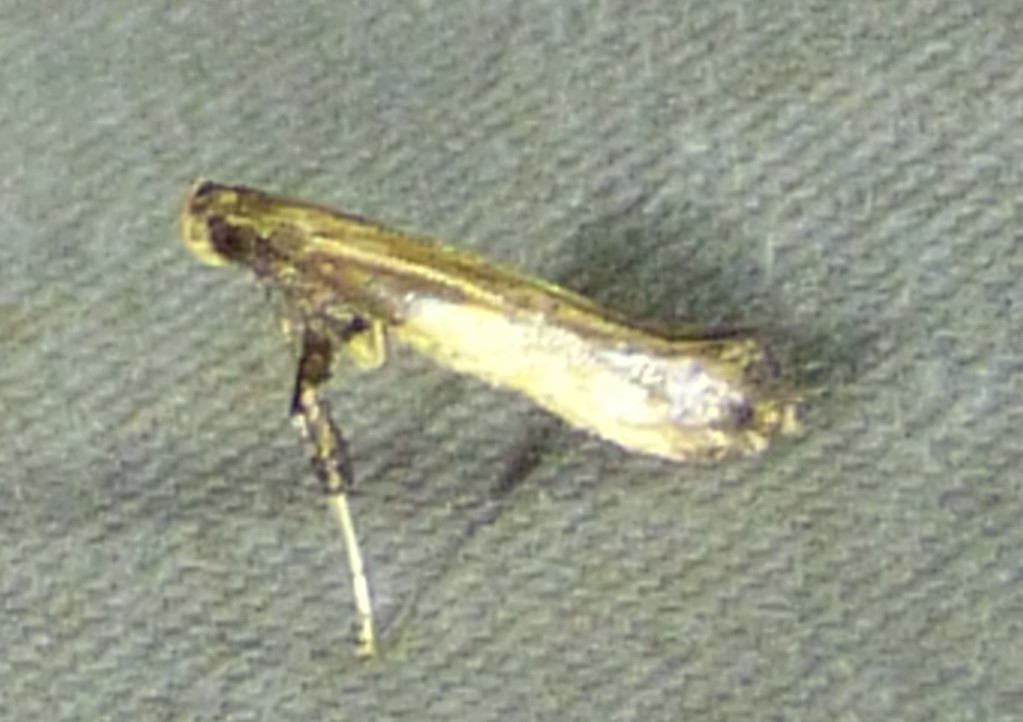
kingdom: Animalia
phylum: Arthropoda
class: Insecta
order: Lepidoptera
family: Gracillariidae
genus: Caloptilia
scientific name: Caloptilia azaleella
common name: Azalea leafminer
